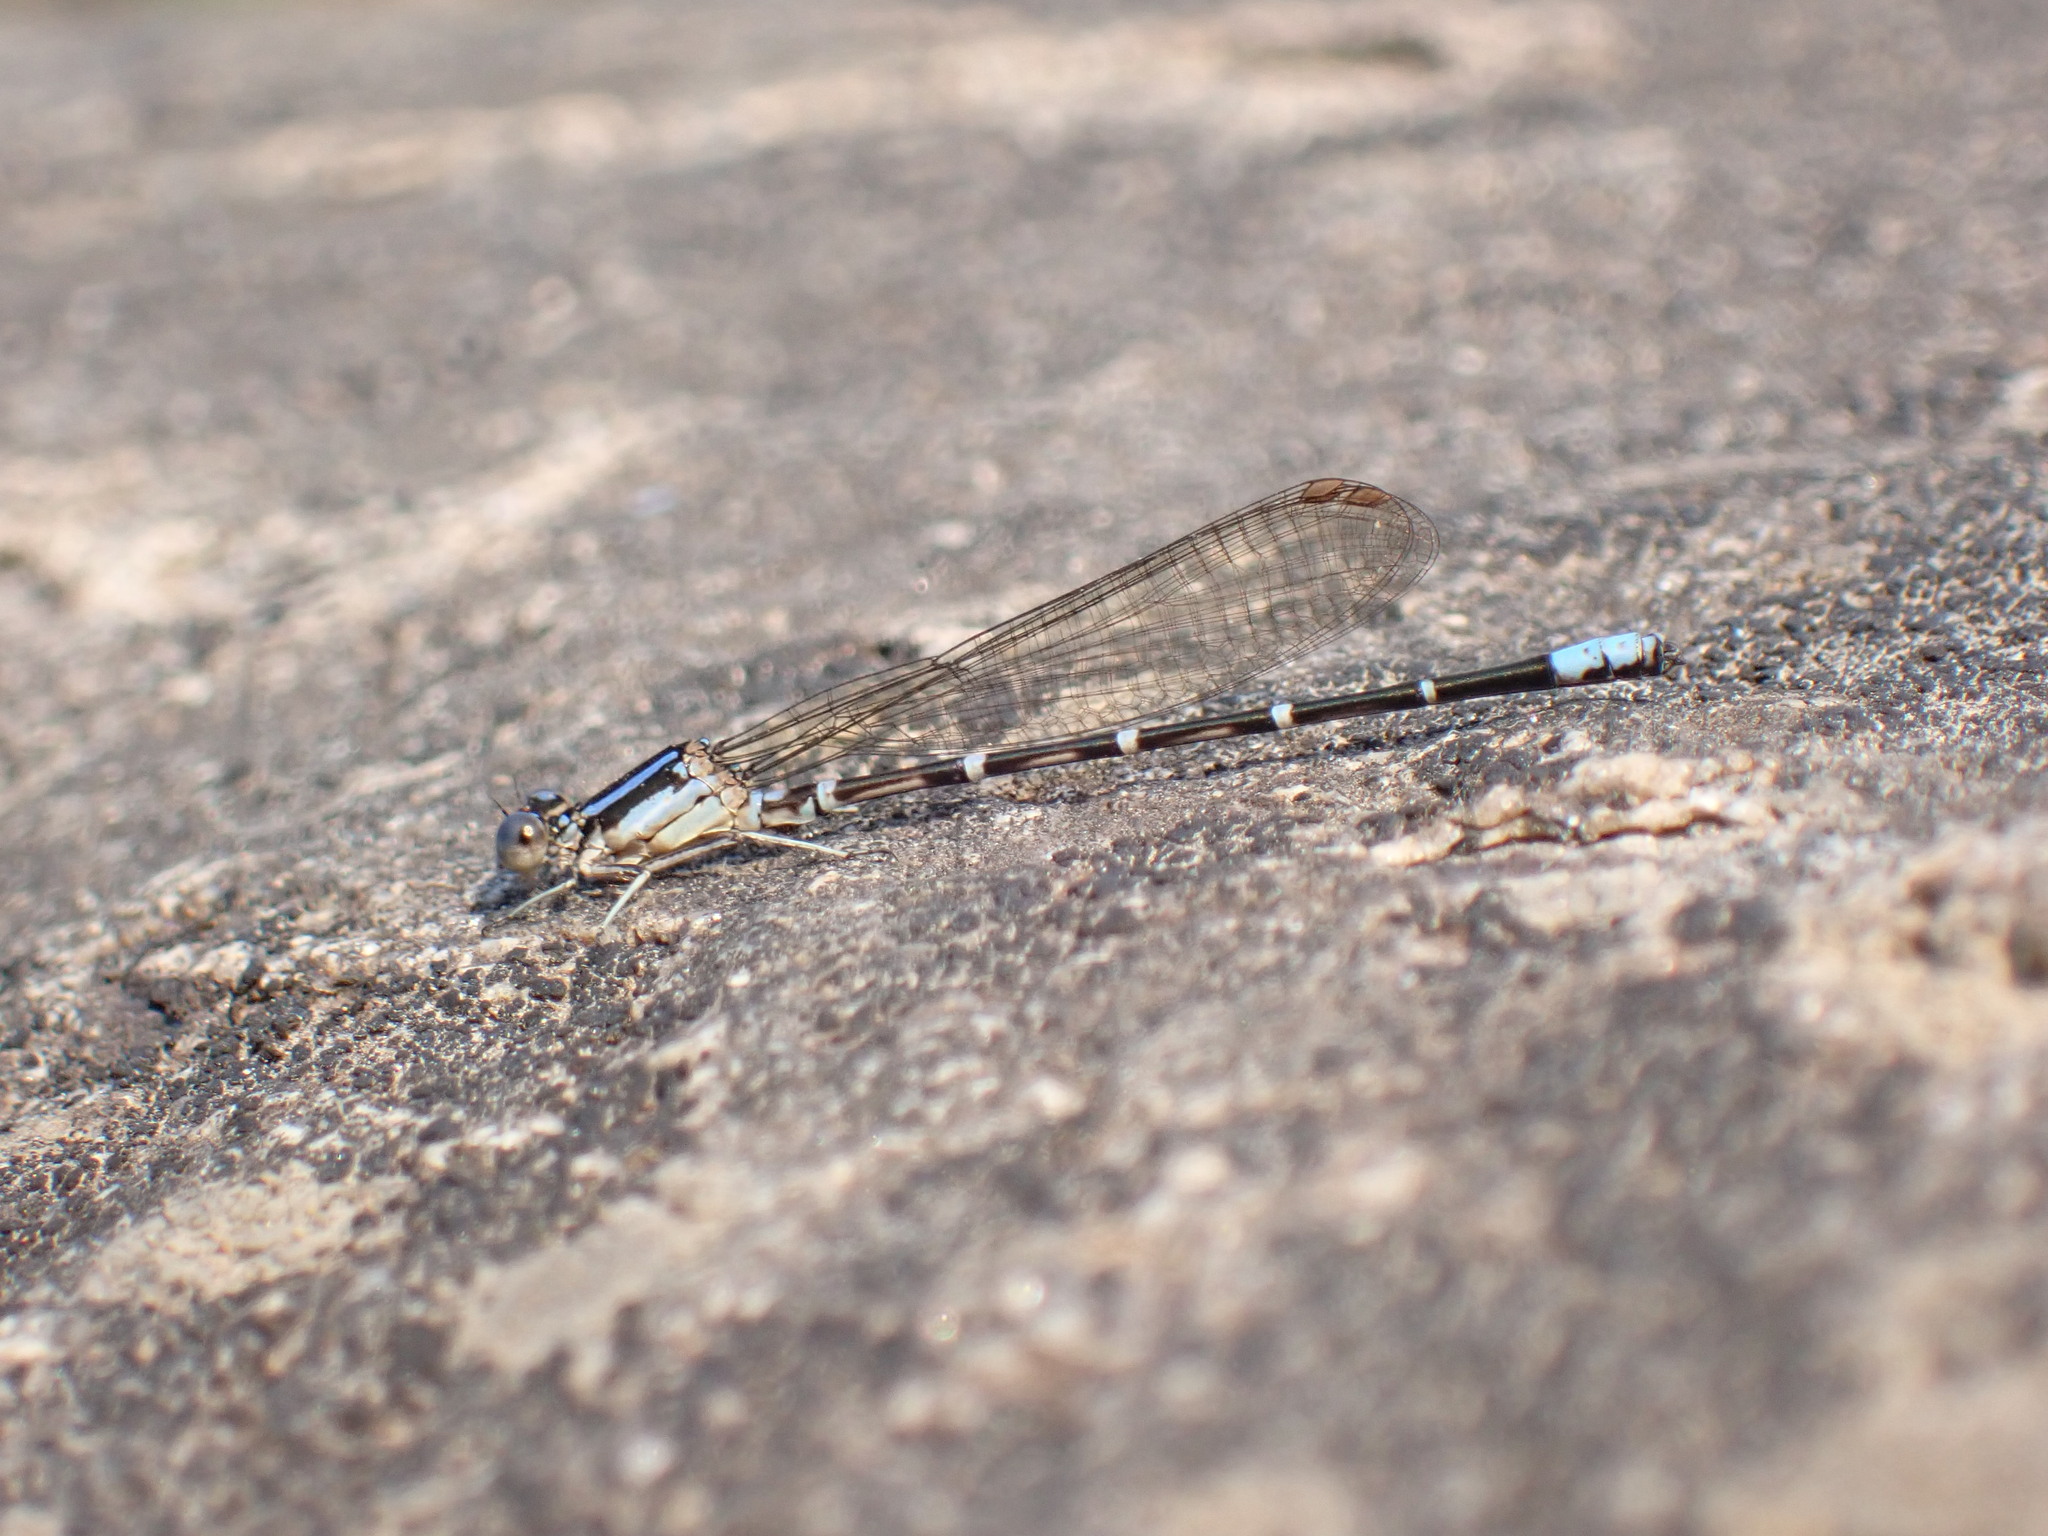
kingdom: Animalia
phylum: Arthropoda
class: Insecta
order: Odonata
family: Coenagrionidae
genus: Argia
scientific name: Argia sedula
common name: Blue-ringed dancer
